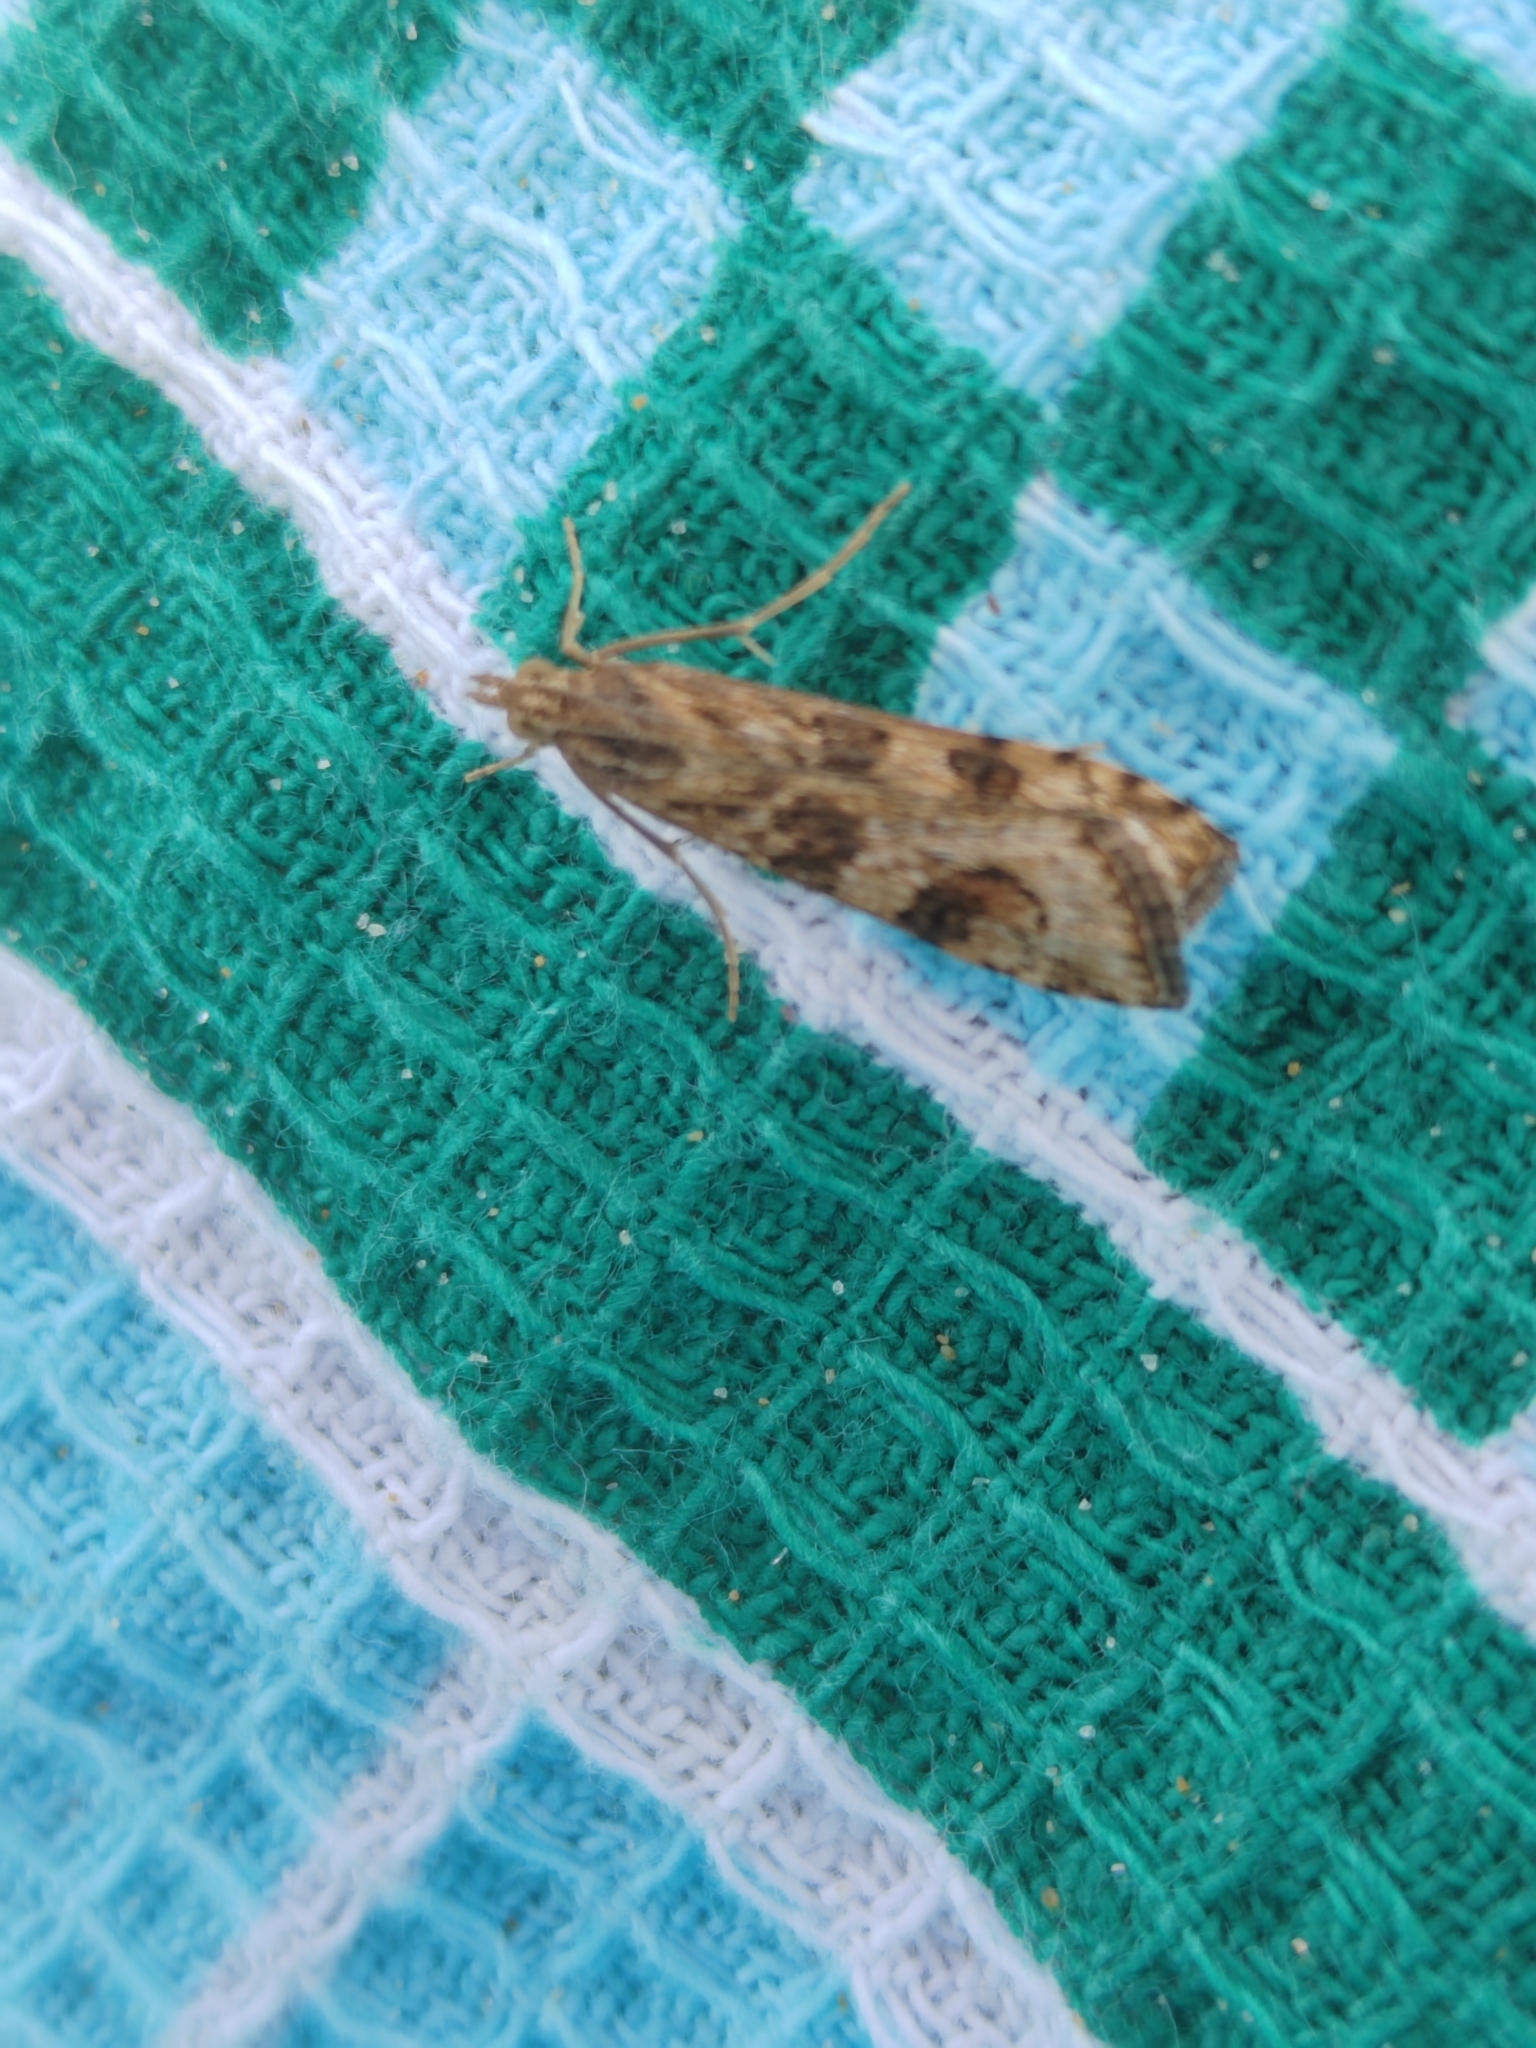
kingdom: Animalia
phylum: Arthropoda
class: Insecta
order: Lepidoptera
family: Crambidae
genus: Nomophila
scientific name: Nomophila noctuella
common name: Rush veneer
